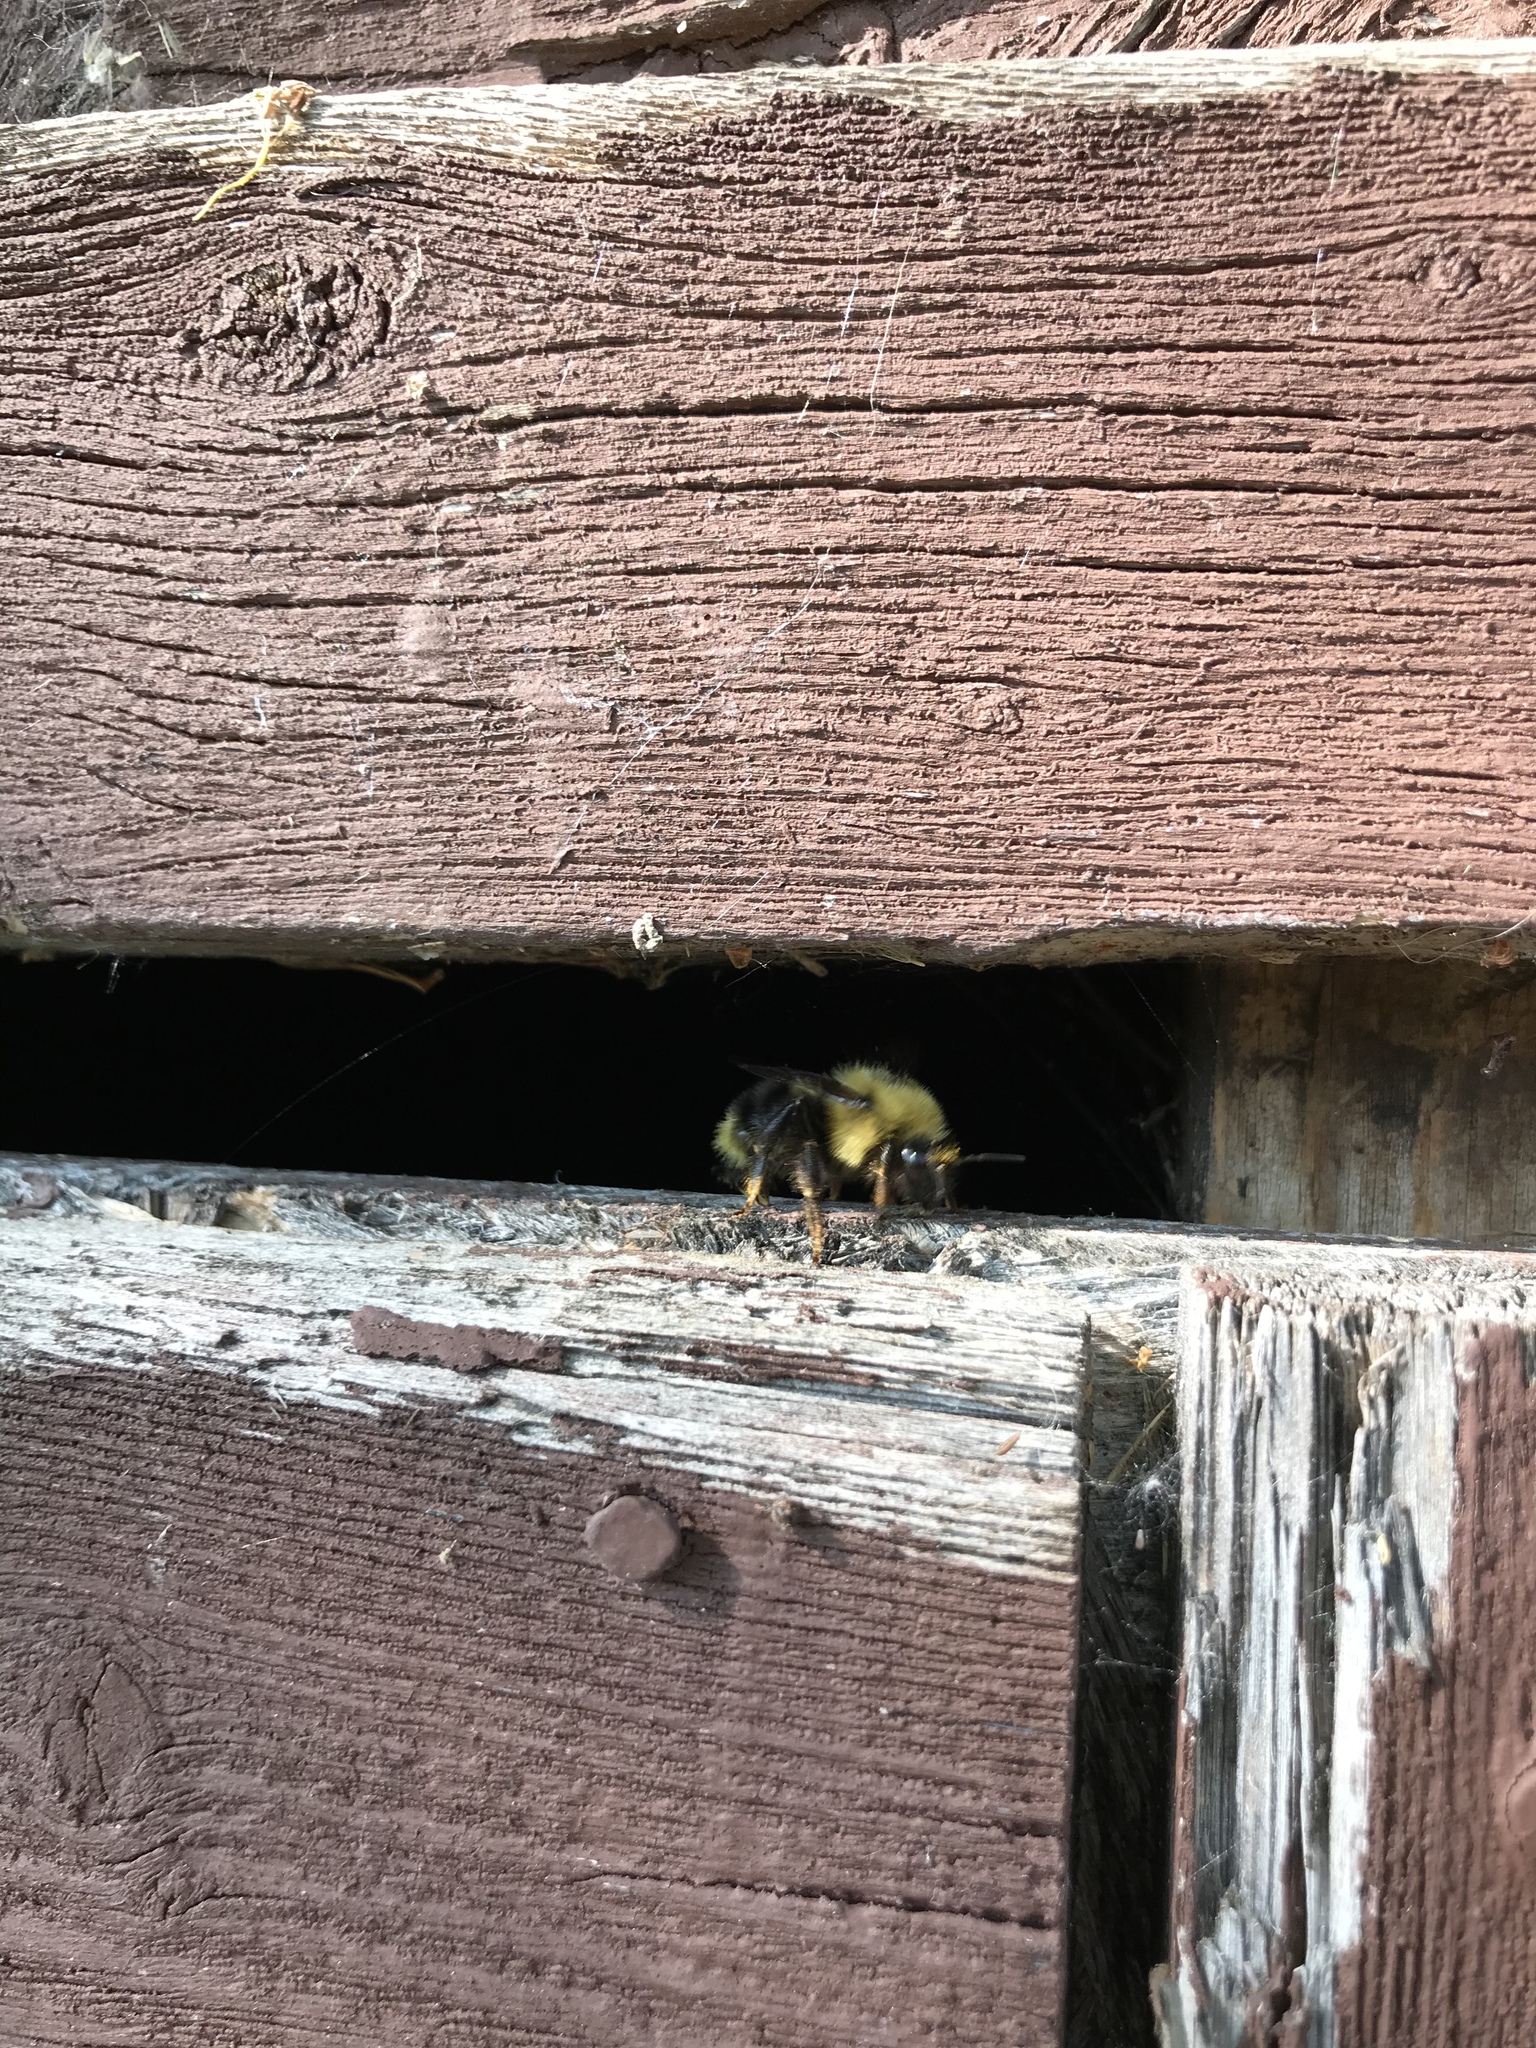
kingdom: Animalia
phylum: Arthropoda
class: Insecta
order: Hymenoptera
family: Apidae
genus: Bombus
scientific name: Bombus flavidus
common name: Fernald cuckoo bumble bee
